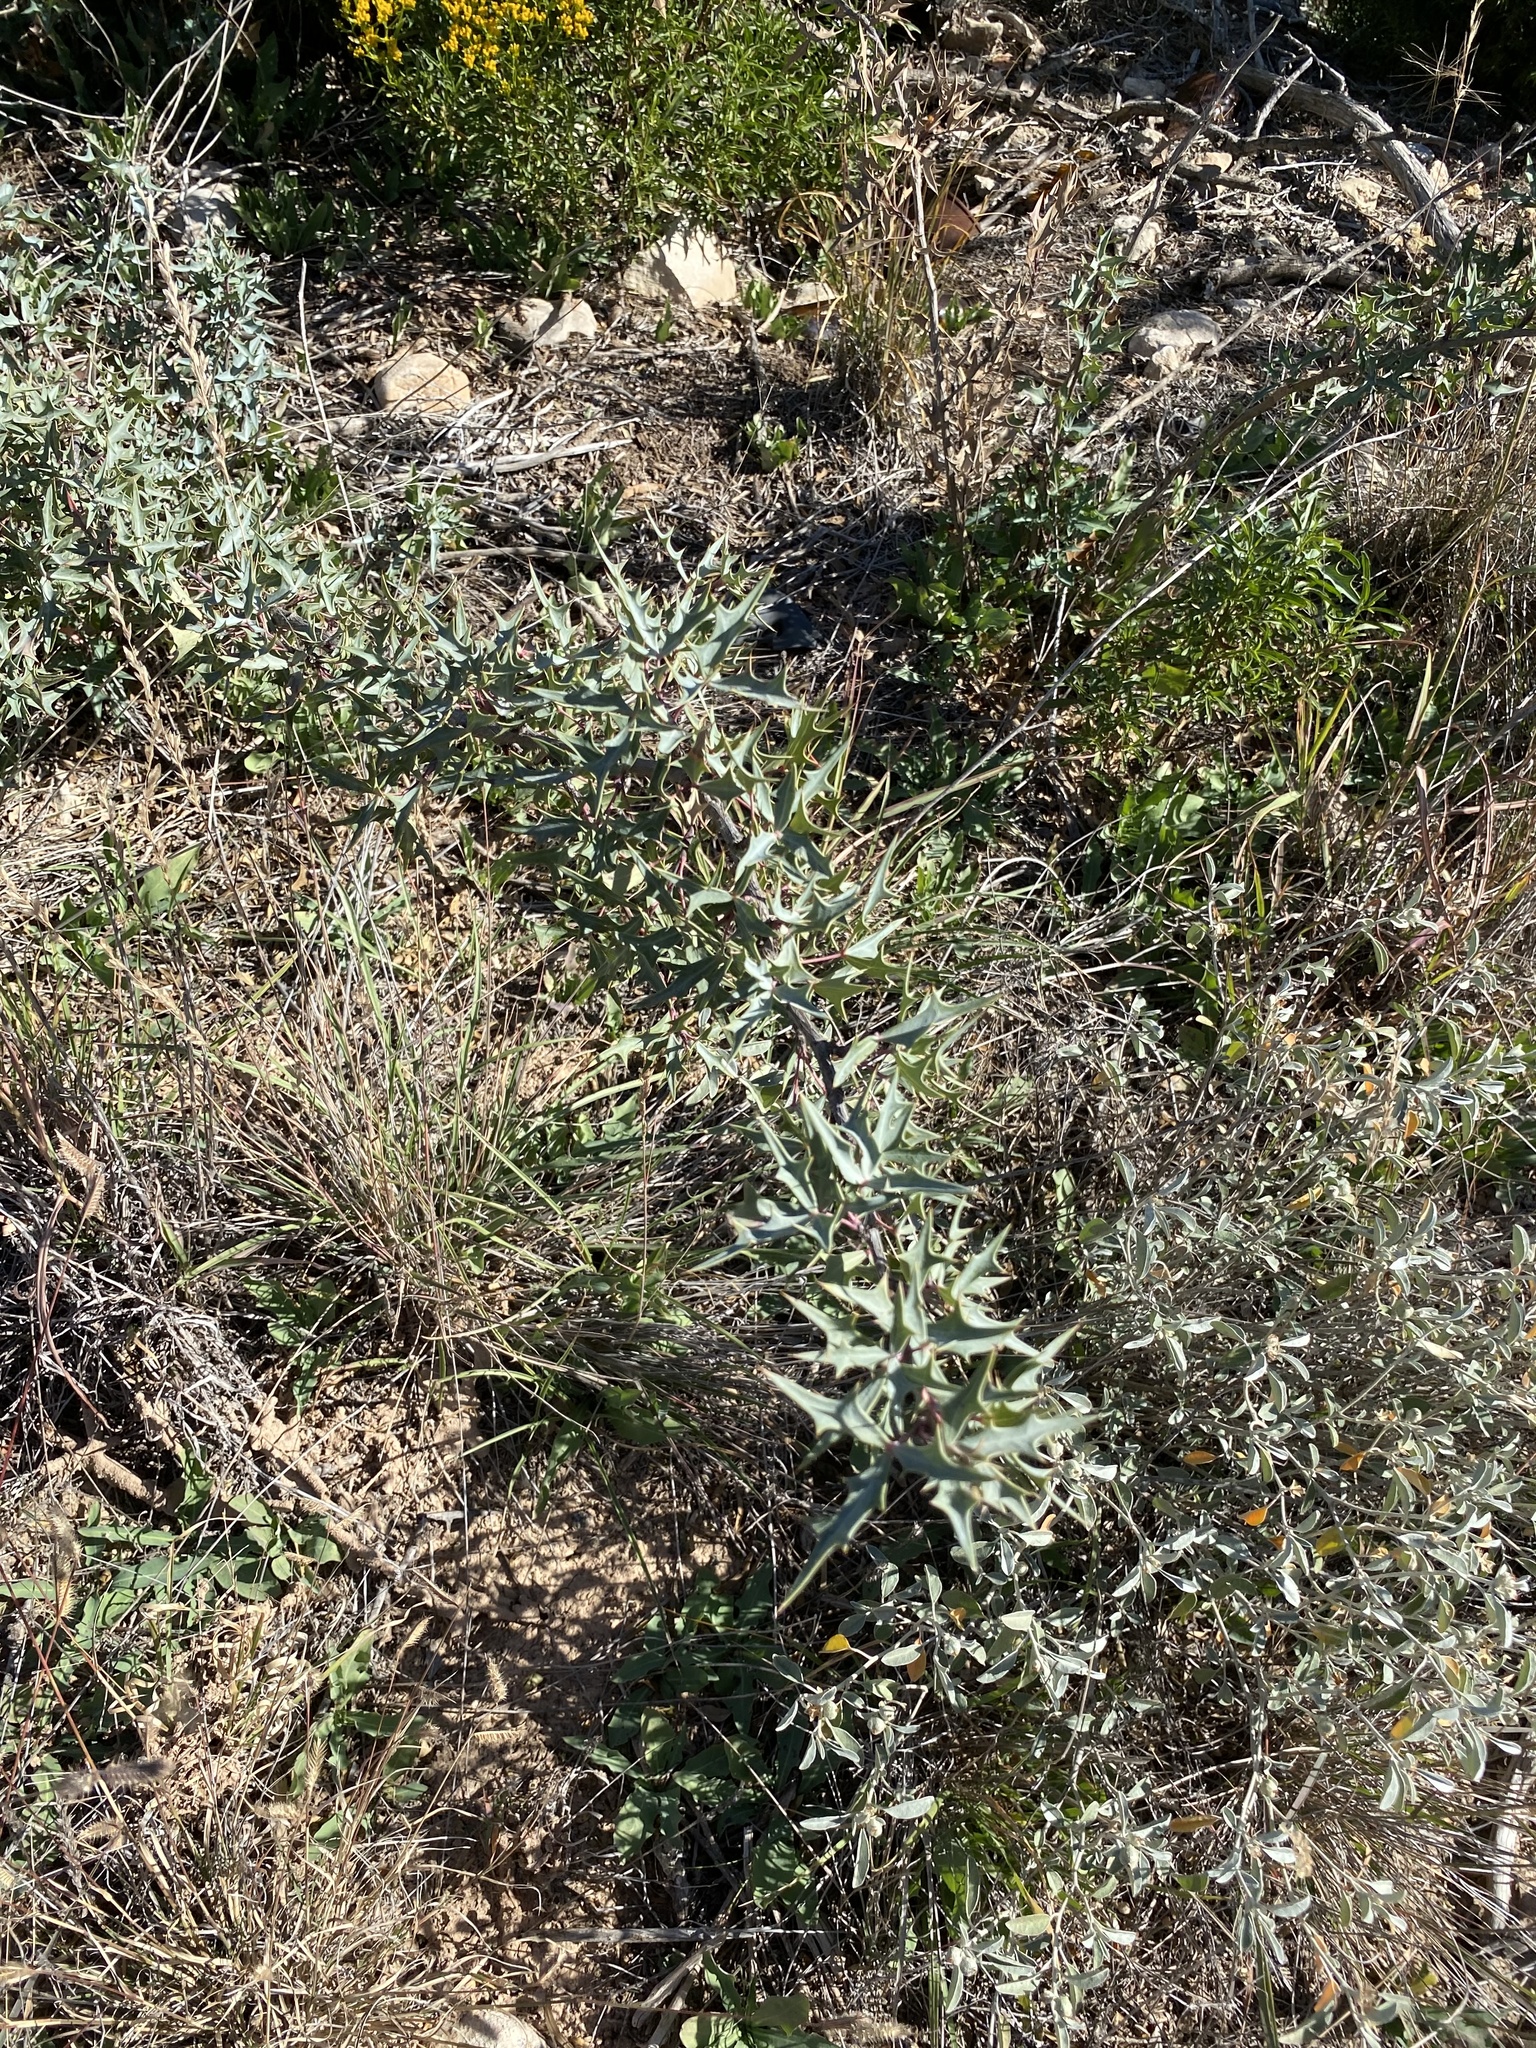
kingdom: Plantae
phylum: Tracheophyta
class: Magnoliopsida
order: Ranunculales
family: Berberidaceae
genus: Alloberberis
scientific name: Alloberberis trifoliolata
